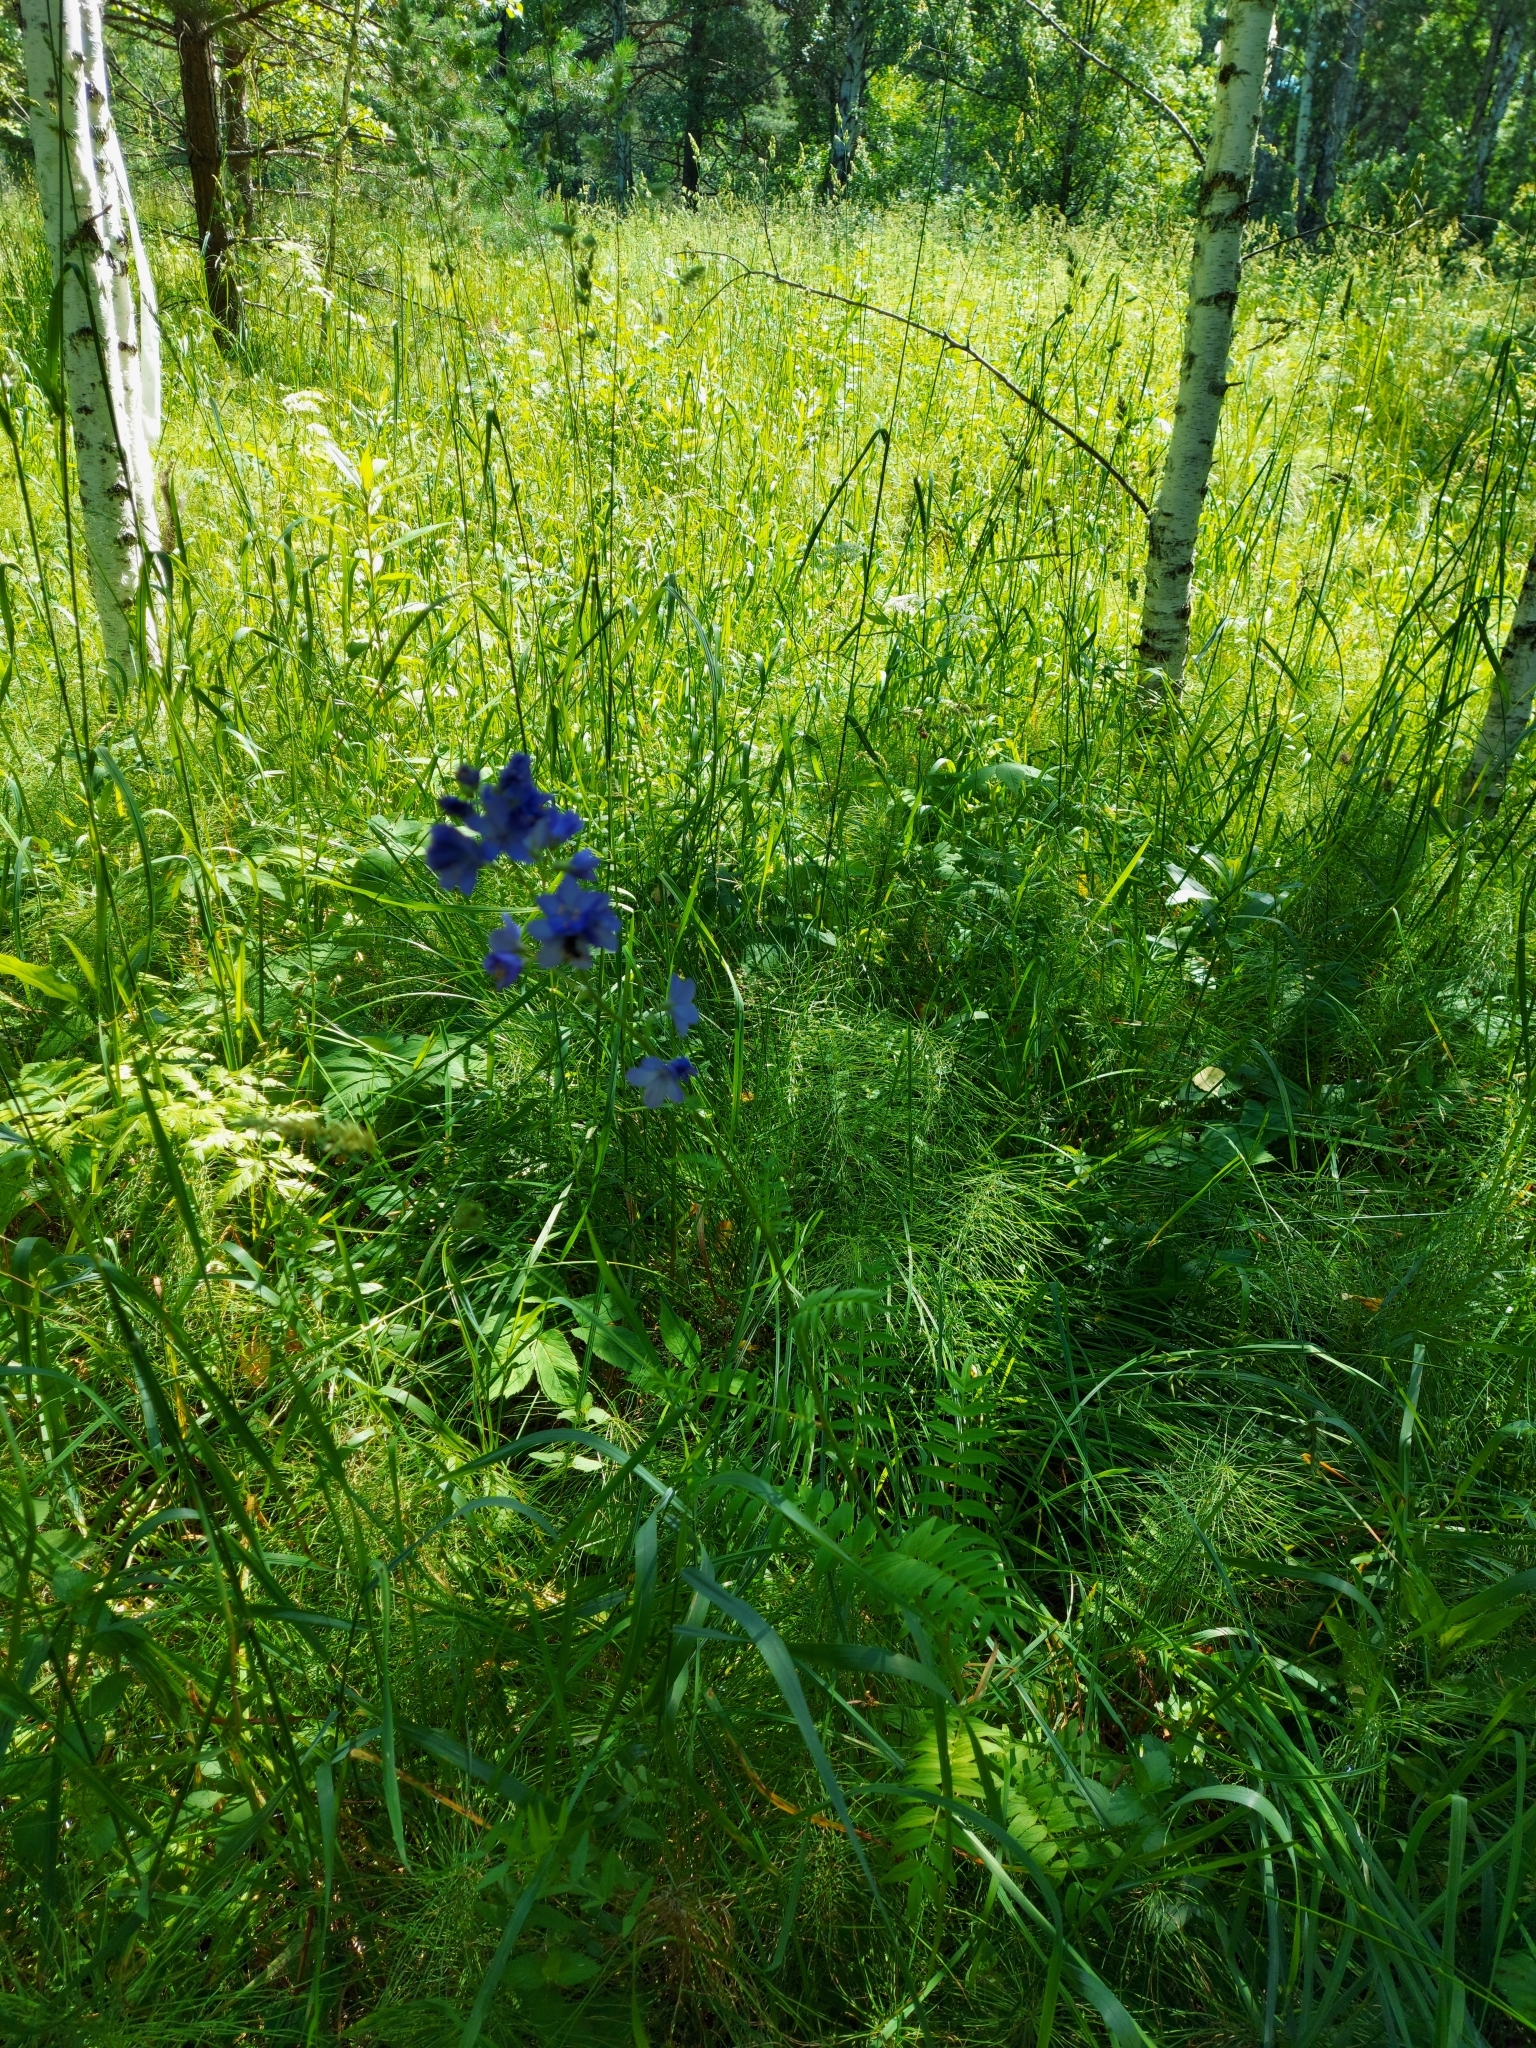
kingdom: Plantae
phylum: Tracheophyta
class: Magnoliopsida
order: Ericales
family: Polemoniaceae
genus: Polemonium
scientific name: Polemonium caeruleum
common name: Jacob's-ladder
